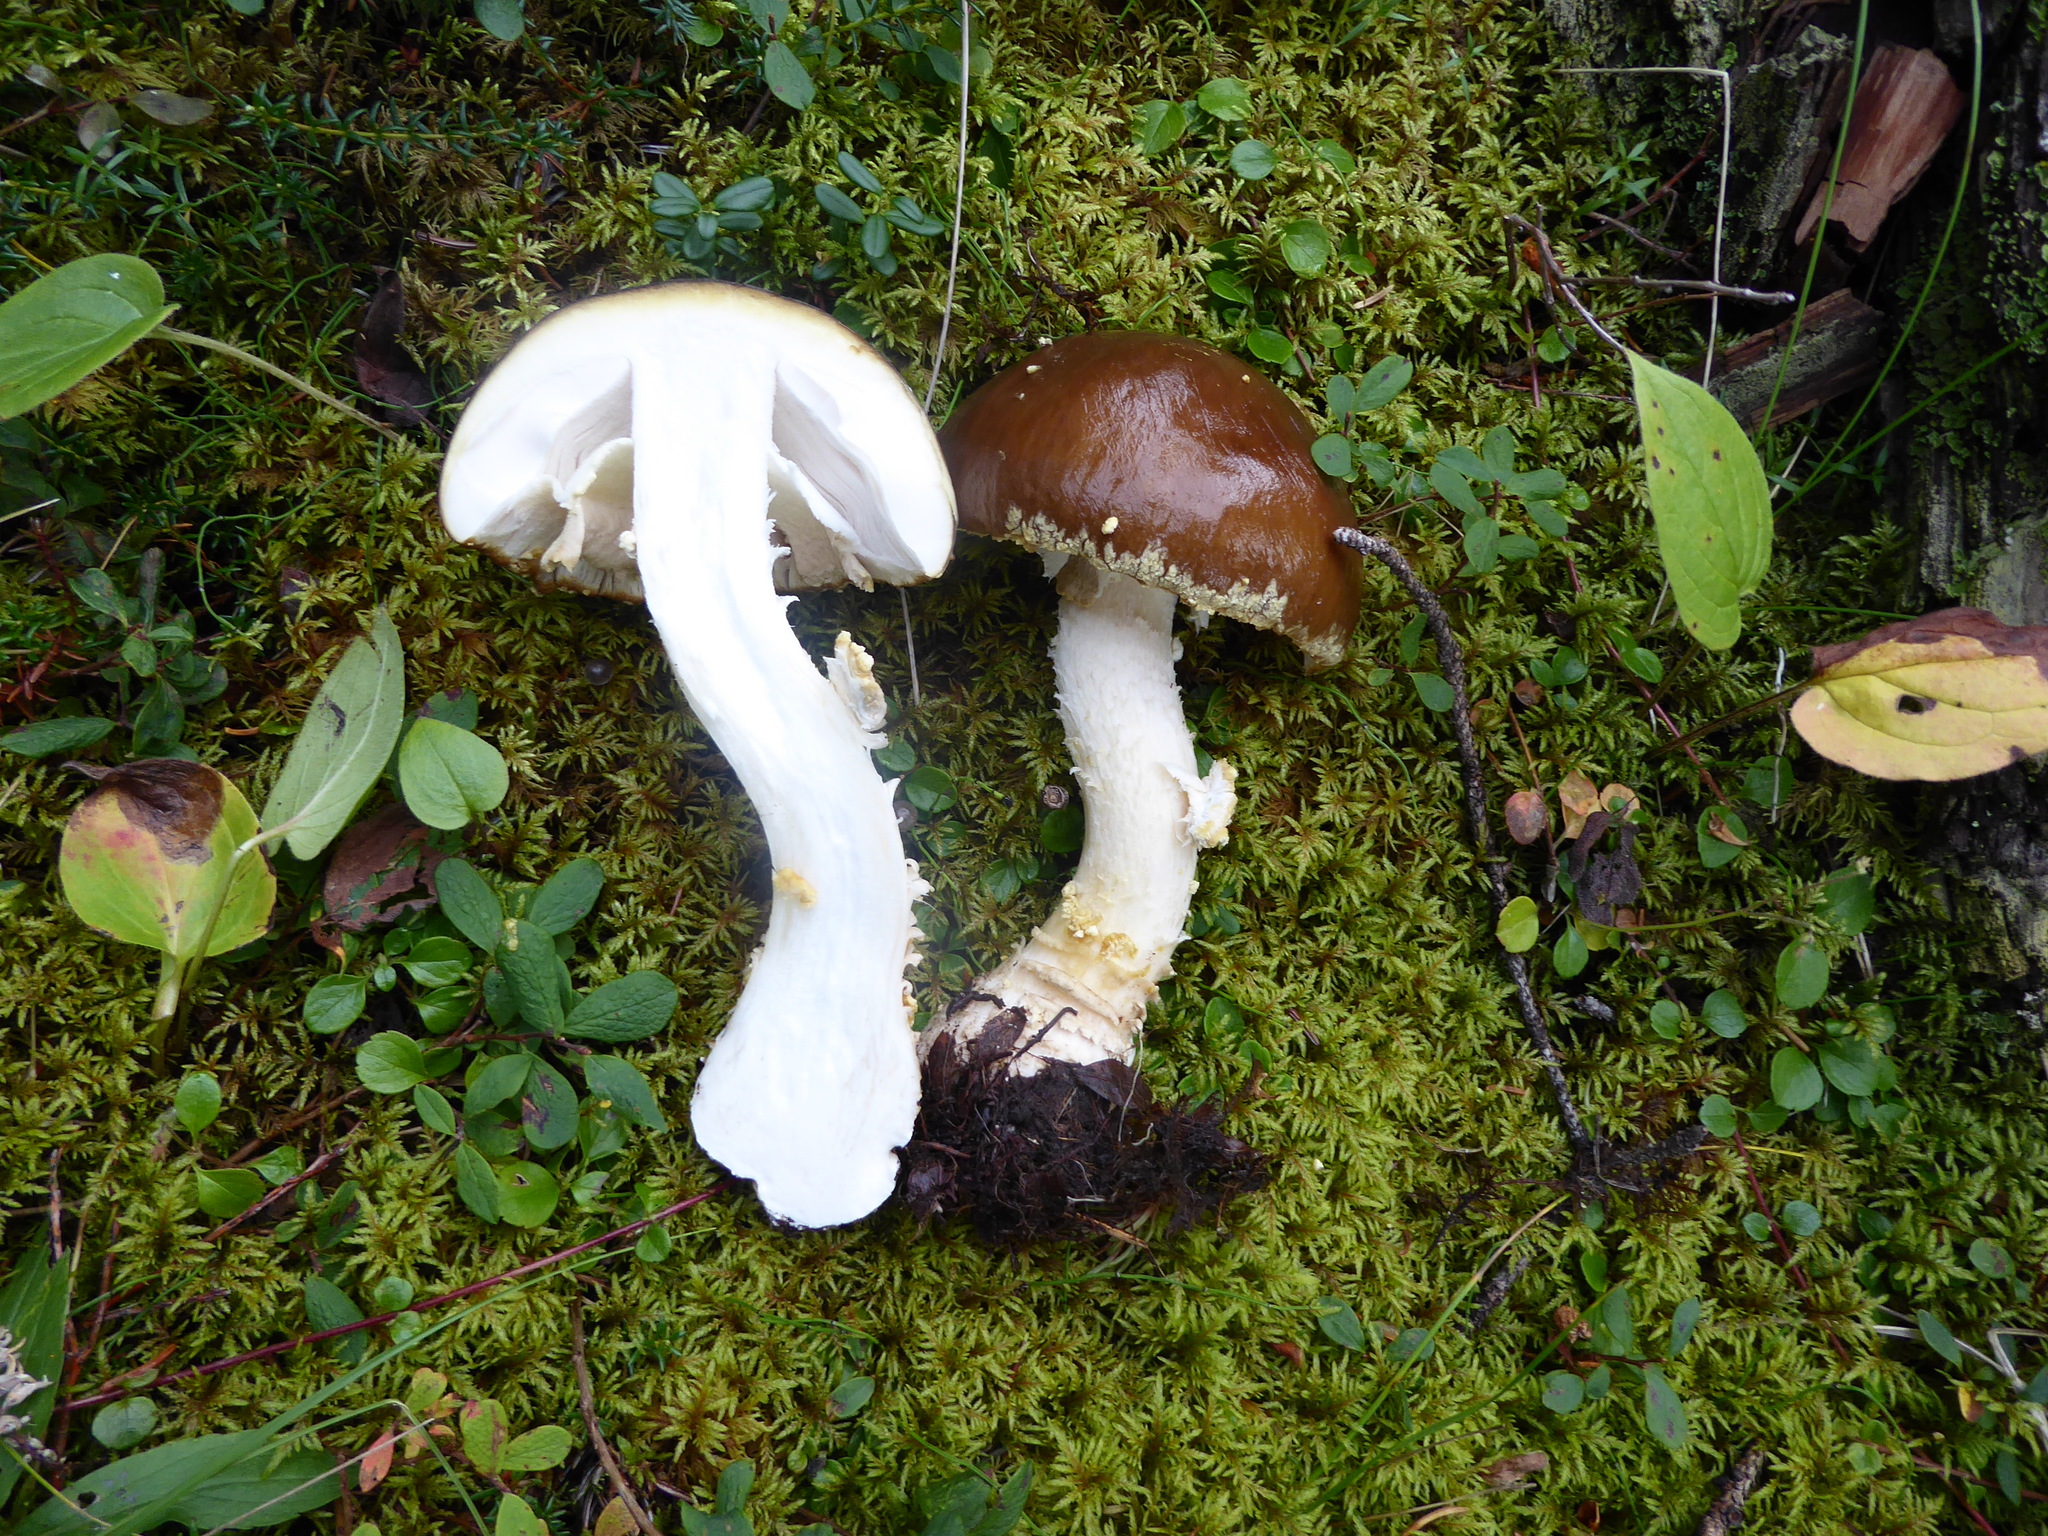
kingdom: Fungi
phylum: Basidiomycota
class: Agaricomycetes
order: Agaricales
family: Amanitaceae
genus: Amanita
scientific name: Amanita regalis
